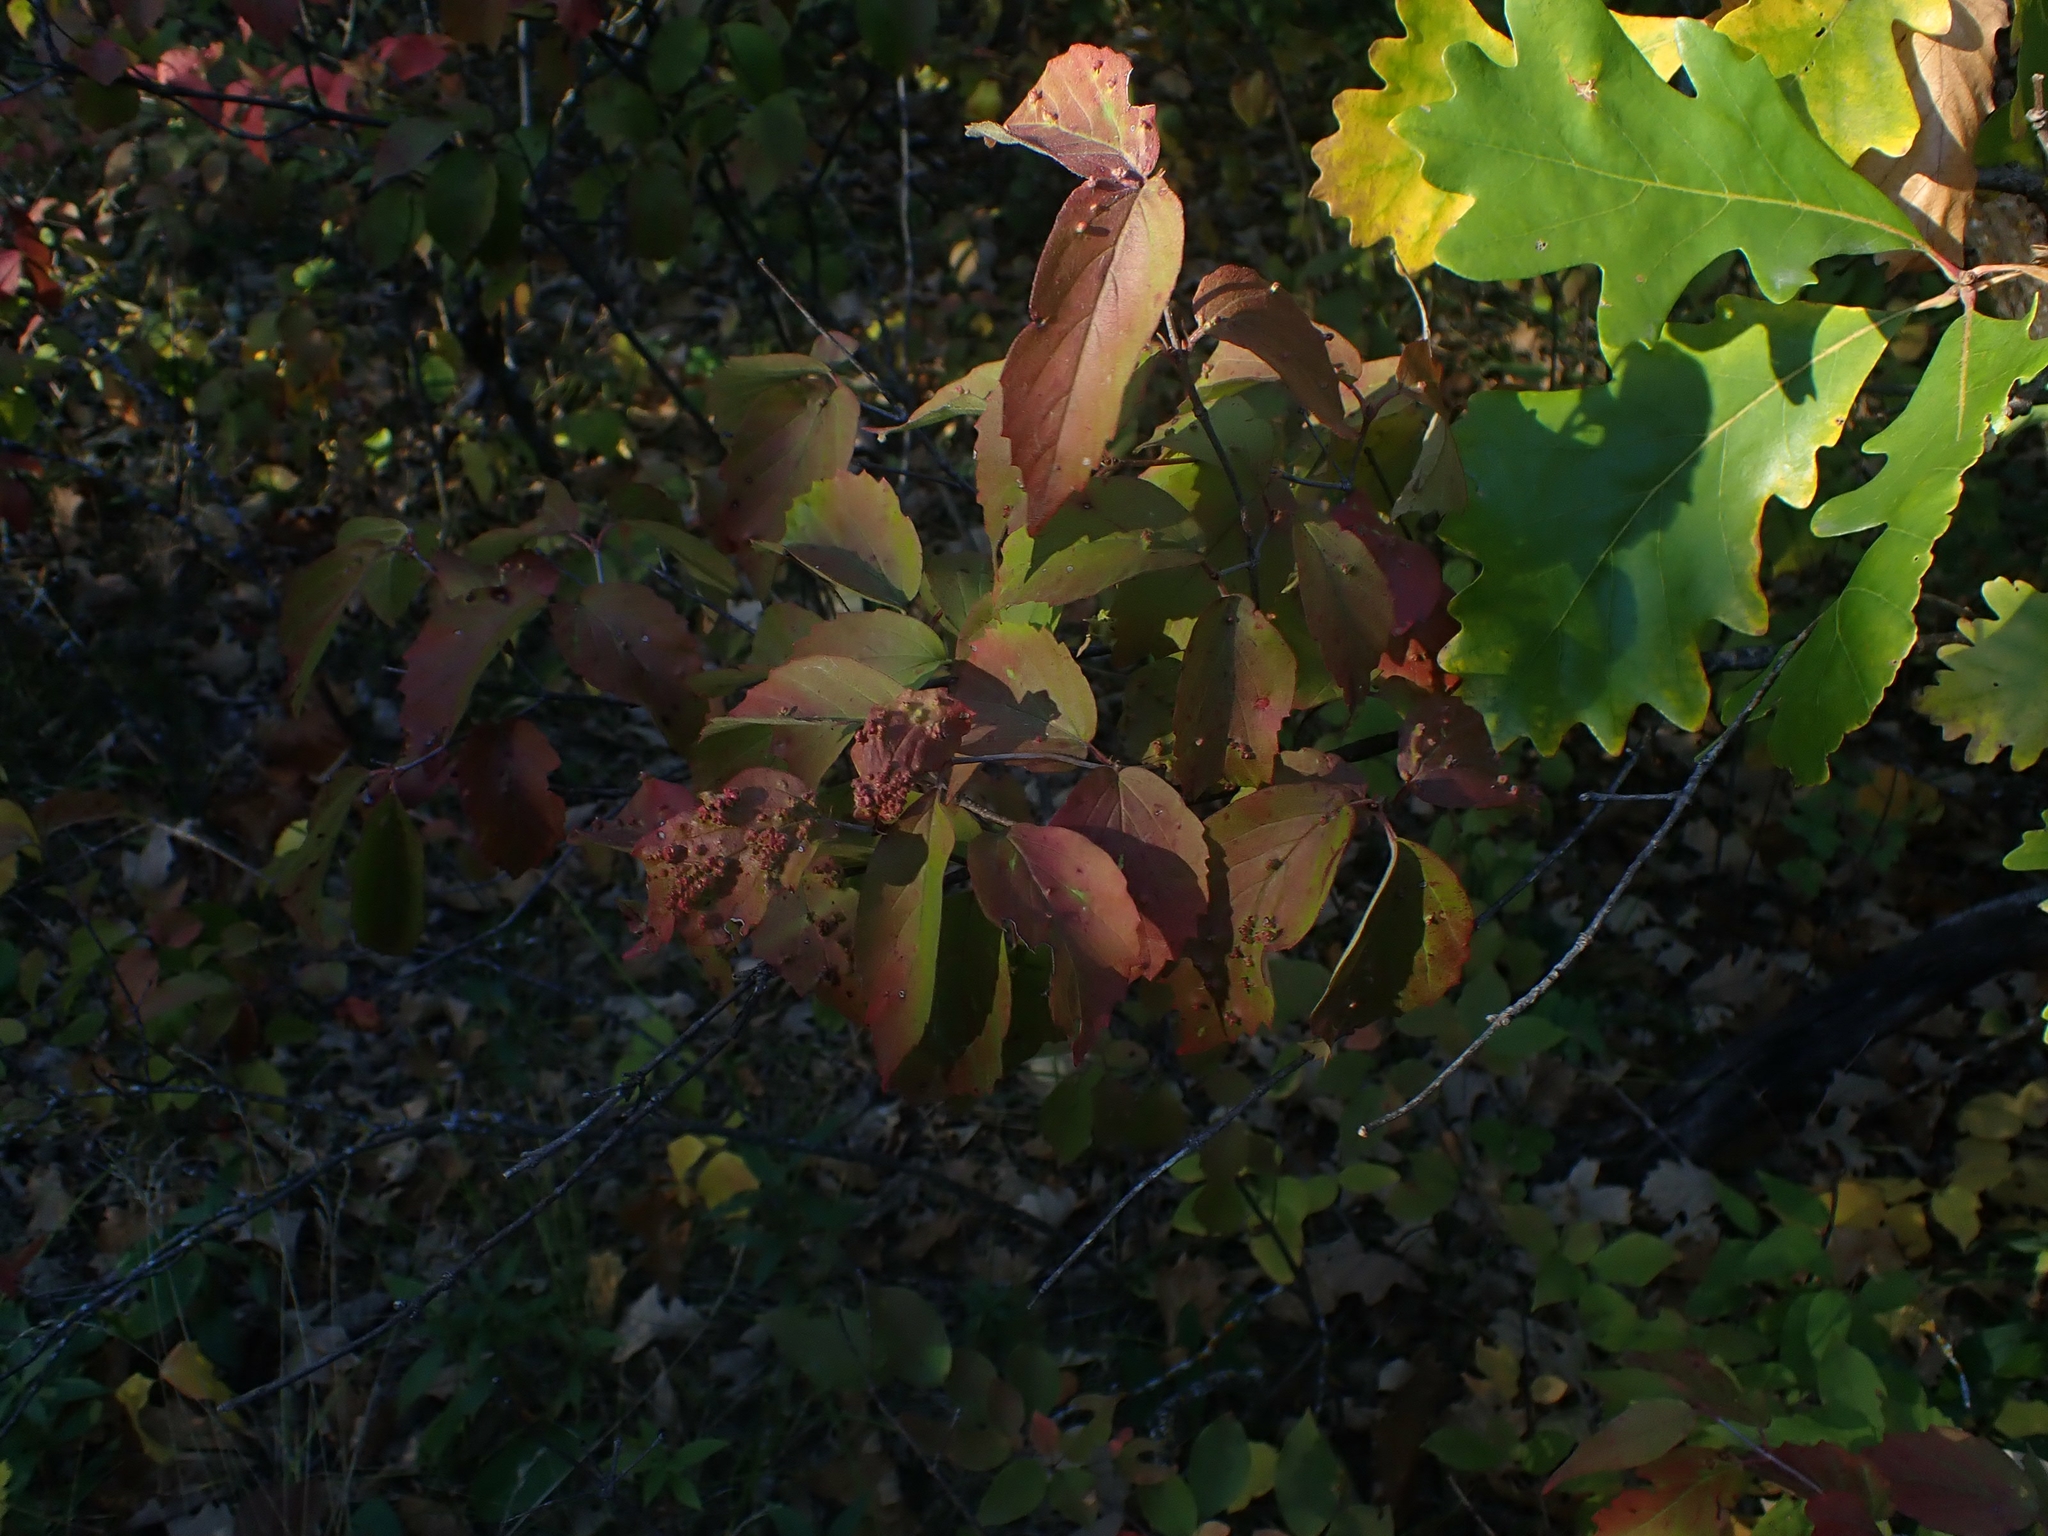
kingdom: Plantae
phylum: Tracheophyta
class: Magnoliopsida
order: Dipsacales
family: Viburnaceae
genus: Viburnum
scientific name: Viburnum rafinesqueanum
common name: Downy arrow-wood
